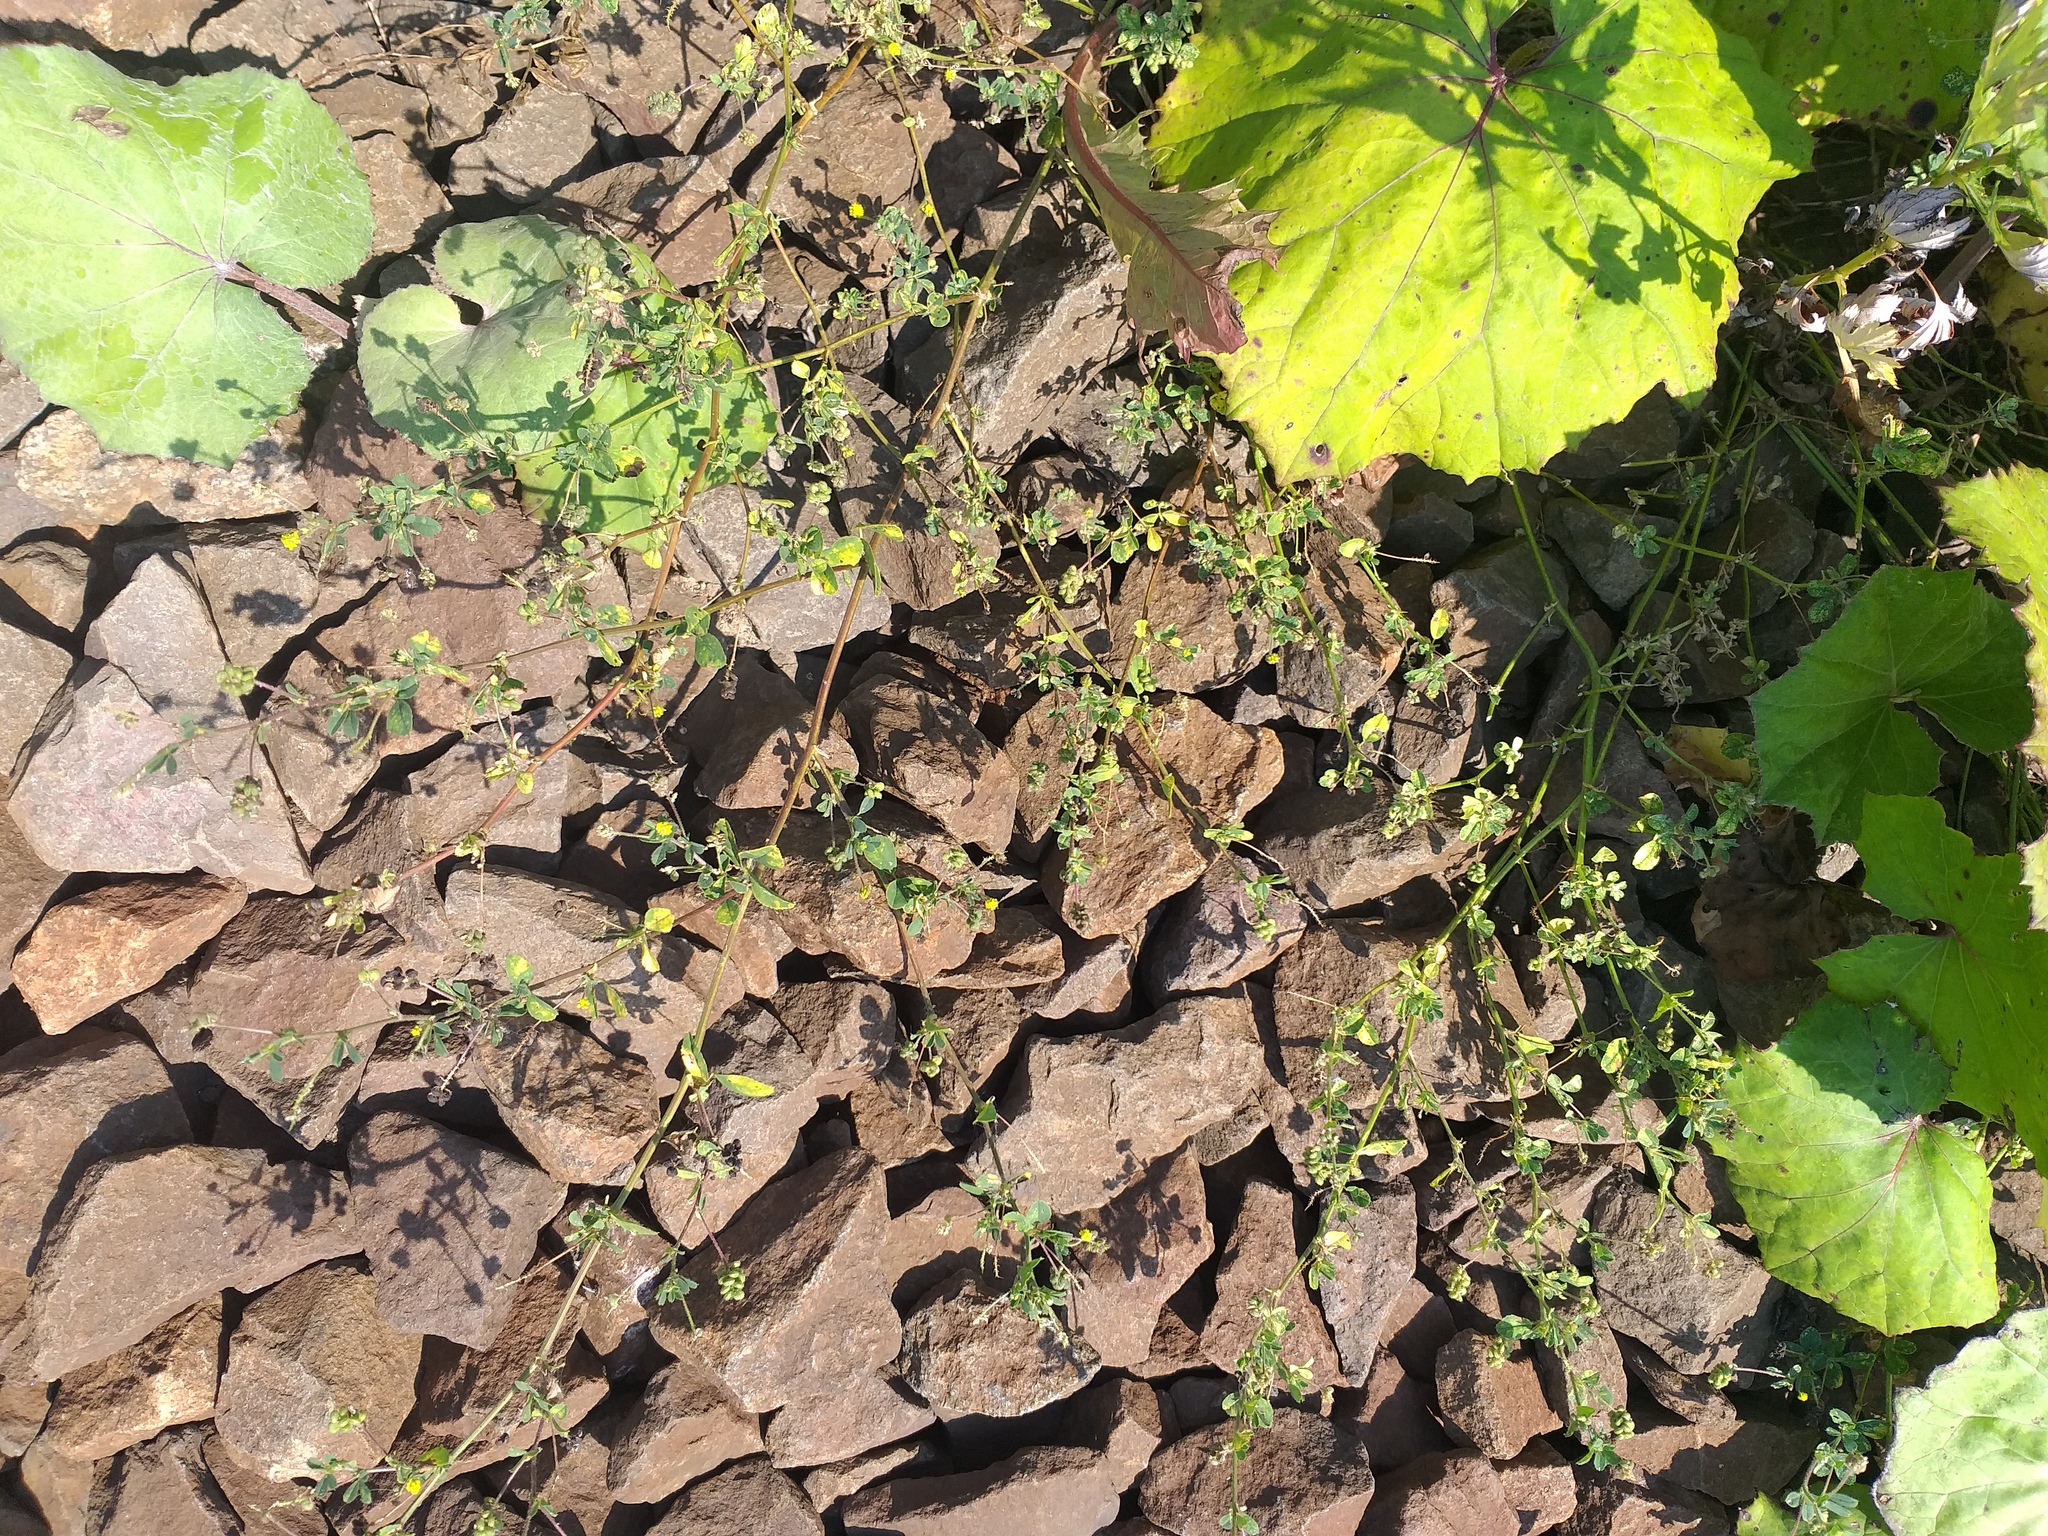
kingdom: Plantae
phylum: Tracheophyta
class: Magnoliopsida
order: Fabales
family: Fabaceae
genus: Medicago
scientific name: Medicago lupulina
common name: Black medick
